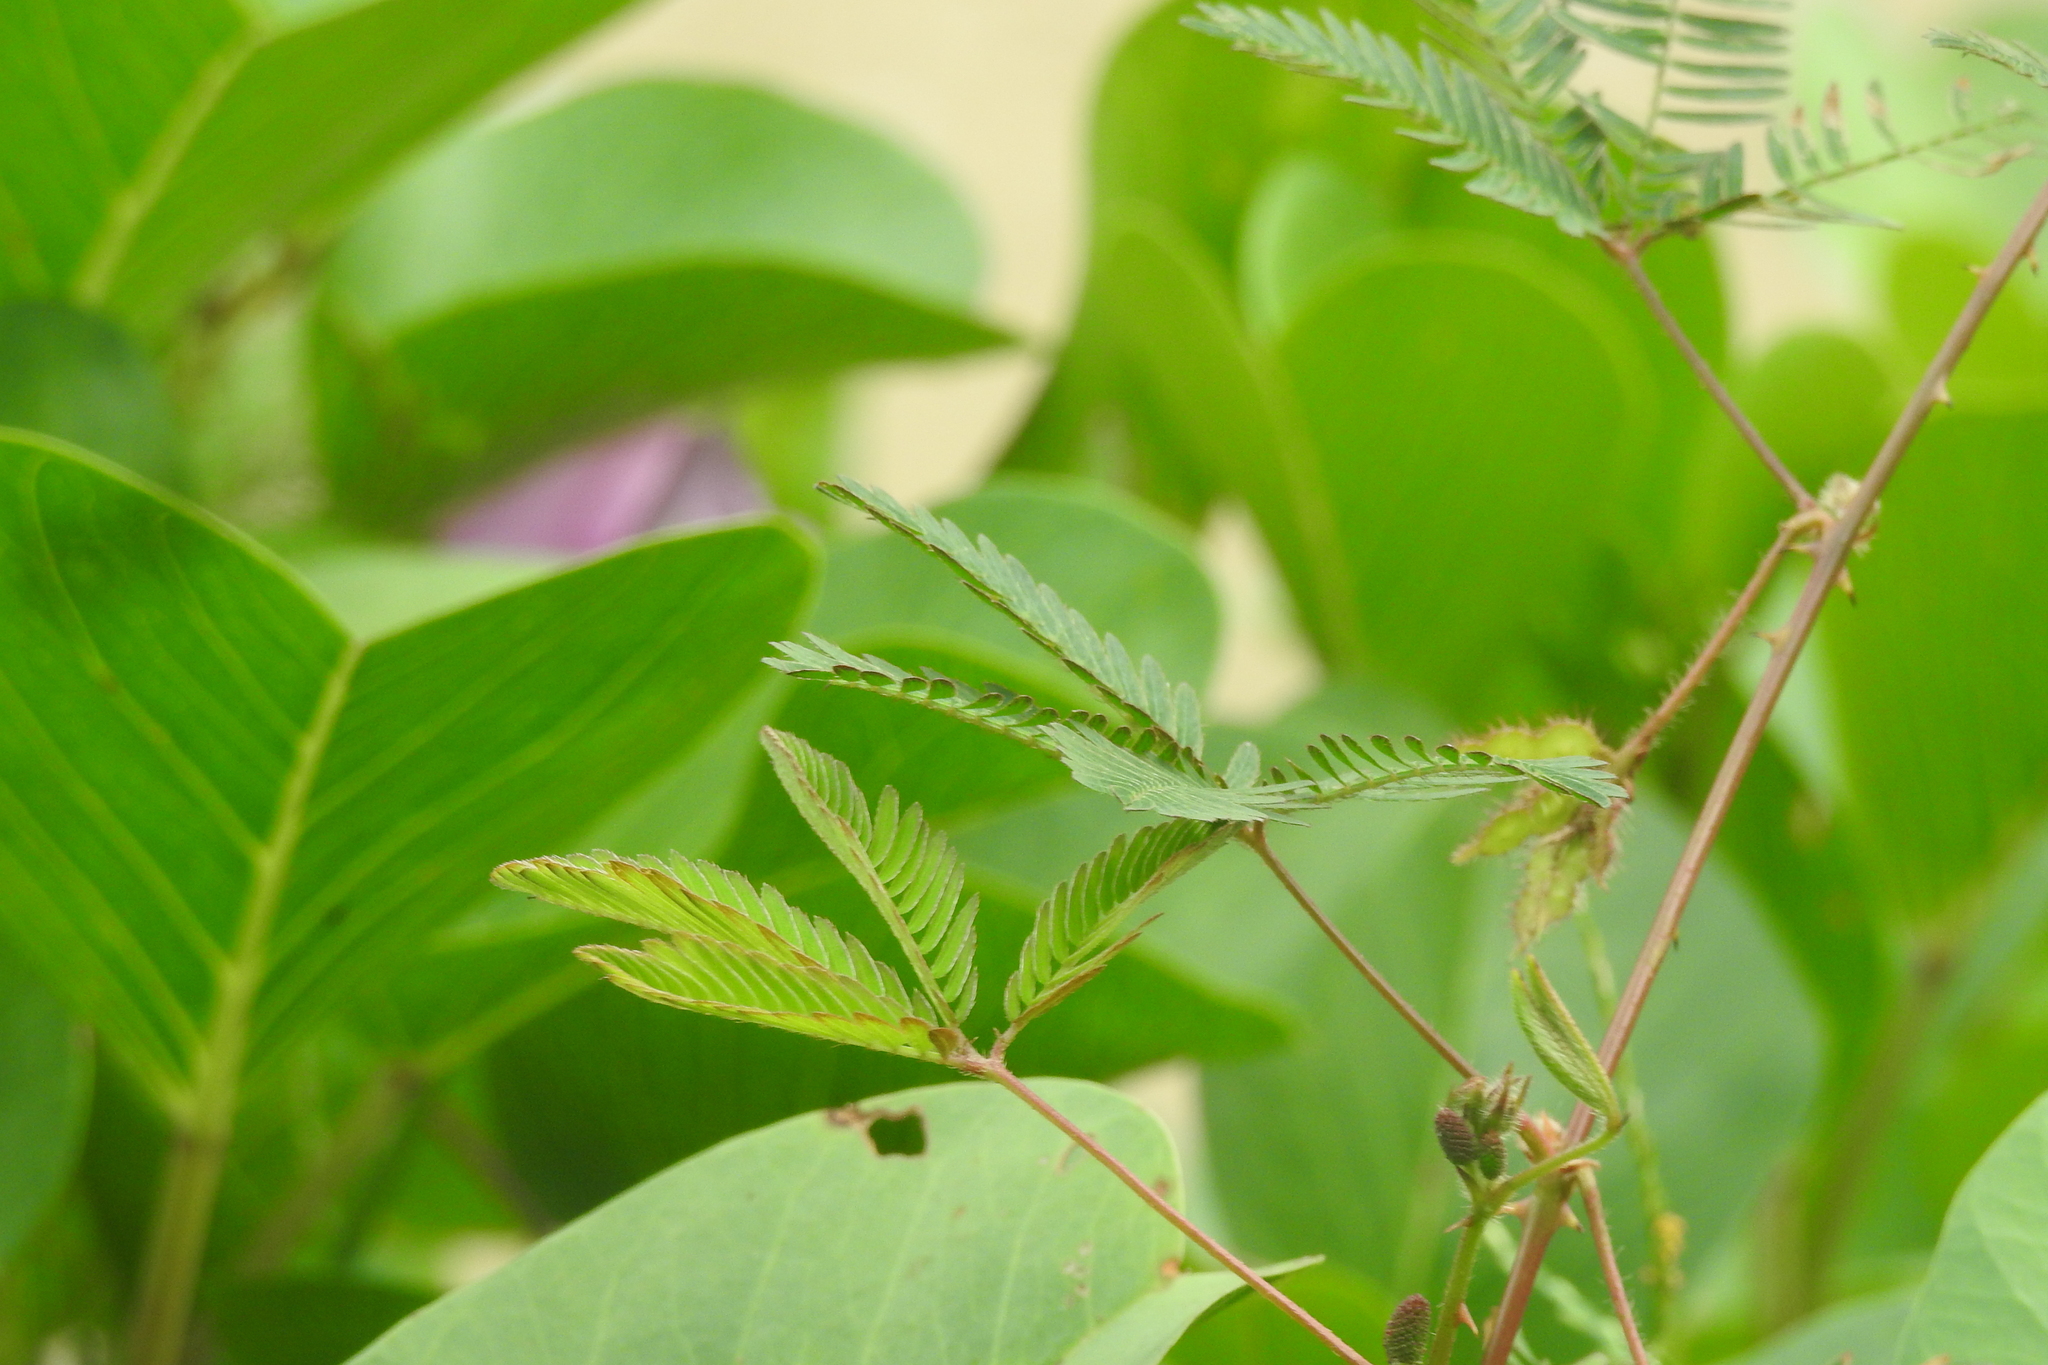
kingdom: Plantae
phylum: Tracheophyta
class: Magnoliopsida
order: Fabales
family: Fabaceae
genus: Mimosa
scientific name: Mimosa pudica
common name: Sensitive plant
